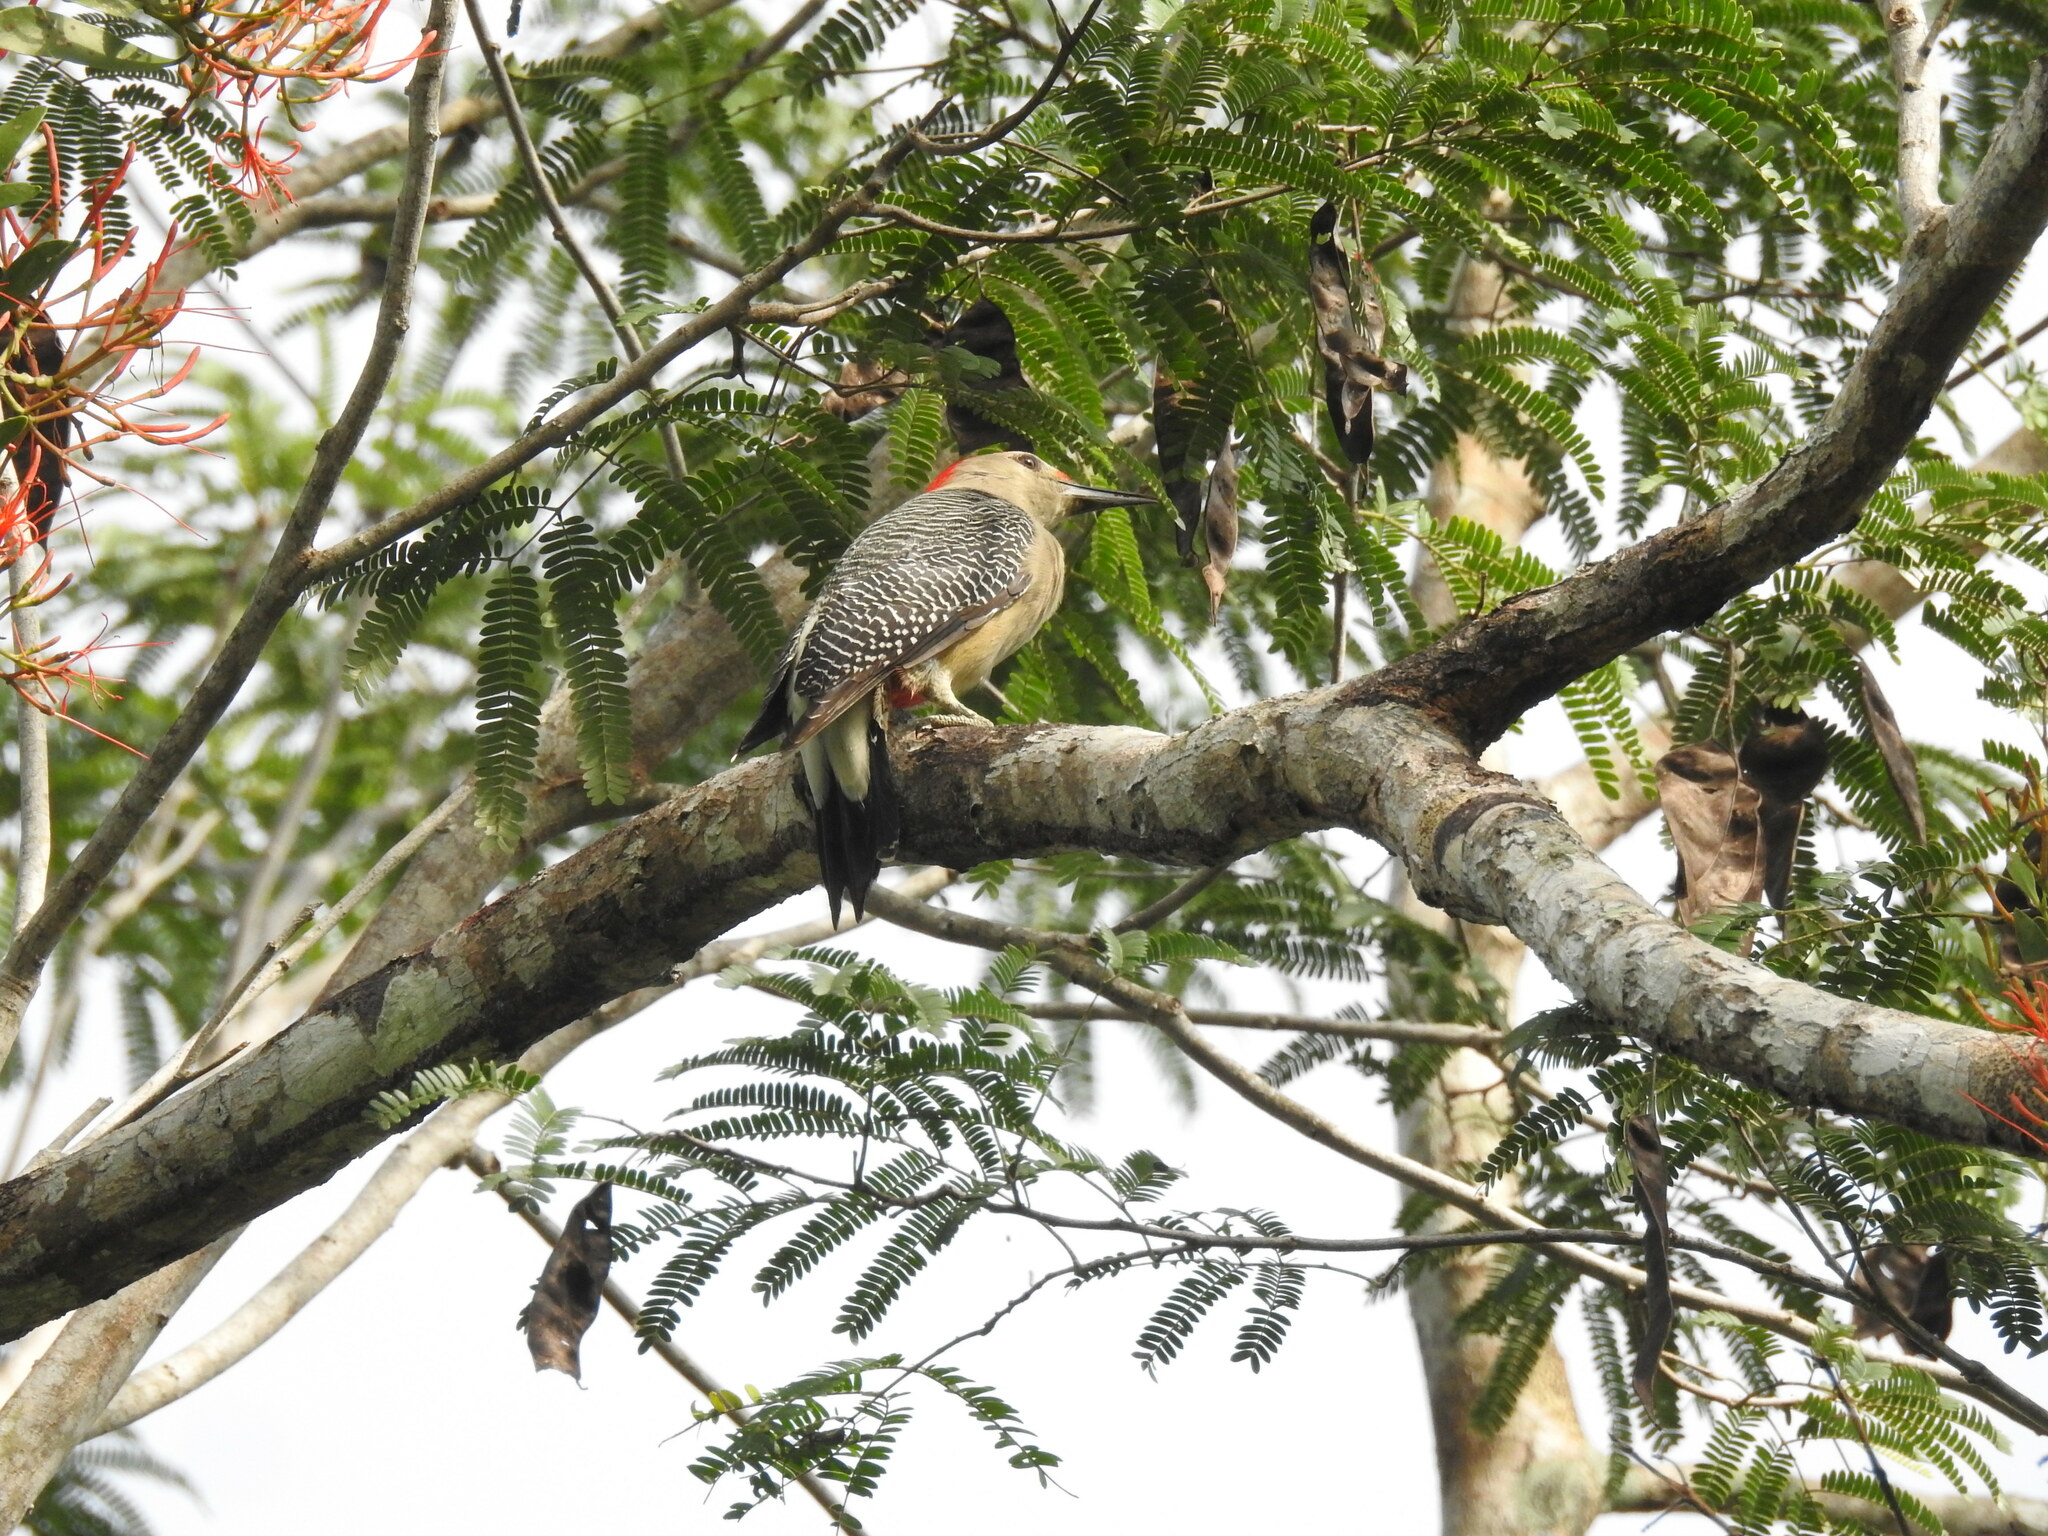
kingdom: Animalia
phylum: Chordata
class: Aves
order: Piciformes
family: Picidae
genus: Melanerpes
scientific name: Melanerpes aurifrons
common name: Golden-fronted woodpecker
